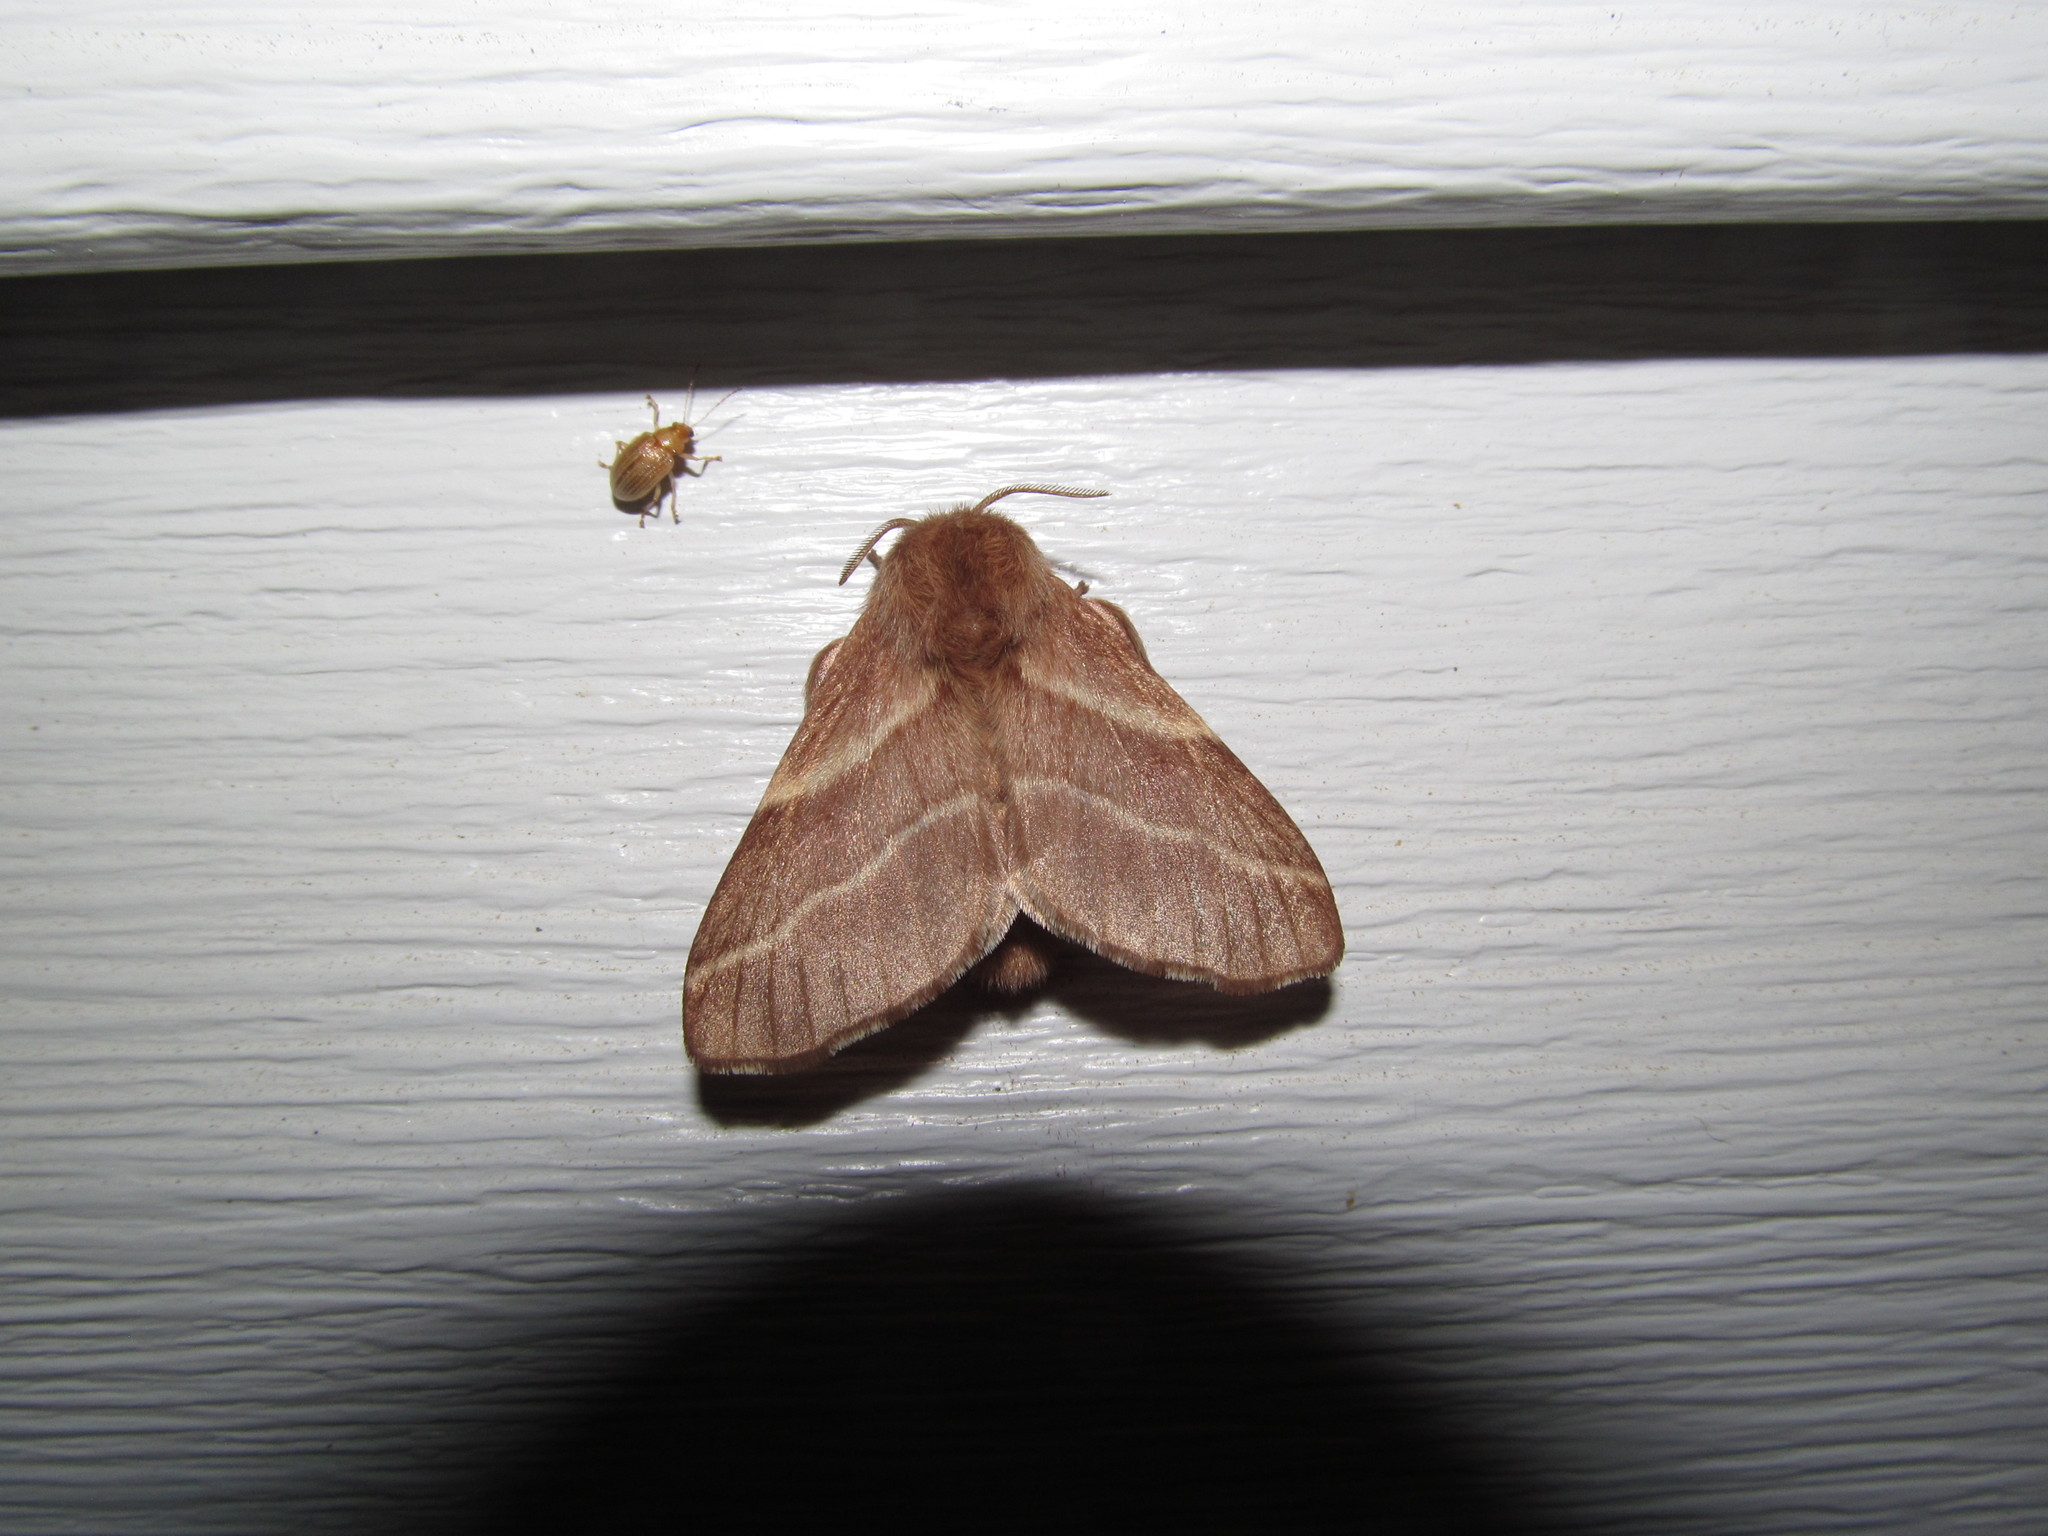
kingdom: Animalia
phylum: Arthropoda
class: Insecta
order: Lepidoptera
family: Lasiocampidae
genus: Malacosoma
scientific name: Malacosoma americana
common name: Eastern tent caterpillar moth
